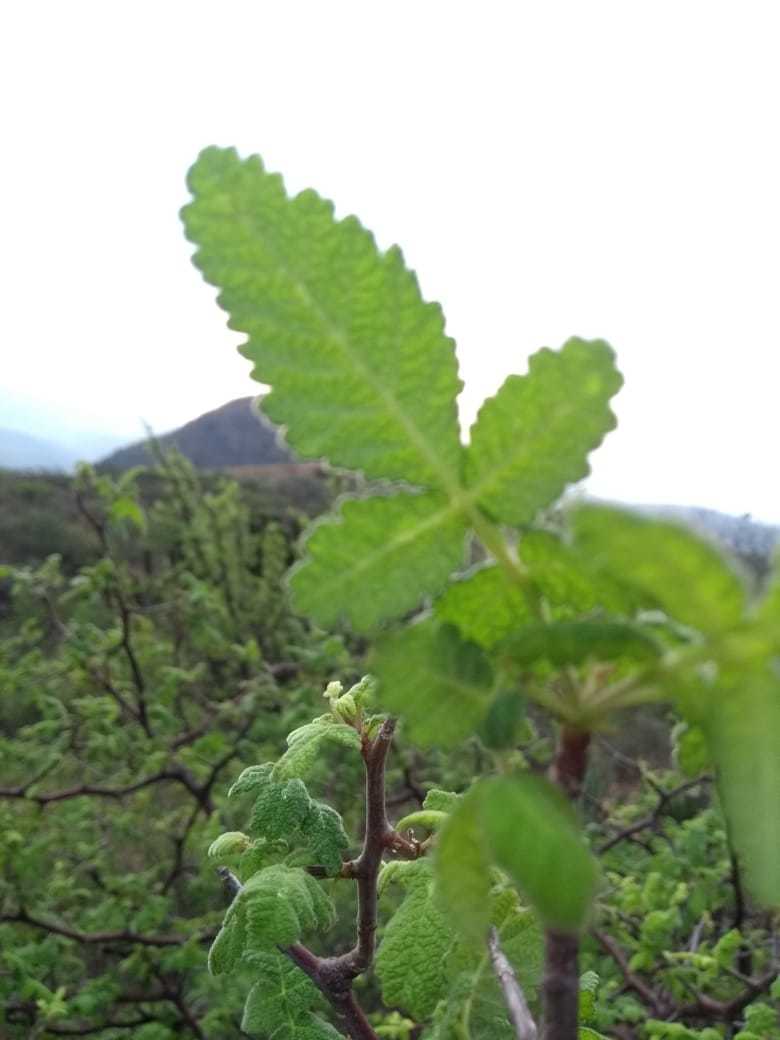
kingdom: Plantae
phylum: Tracheophyta
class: Magnoliopsida
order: Sapindales
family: Burseraceae
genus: Bursera
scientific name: Bursera heliae
